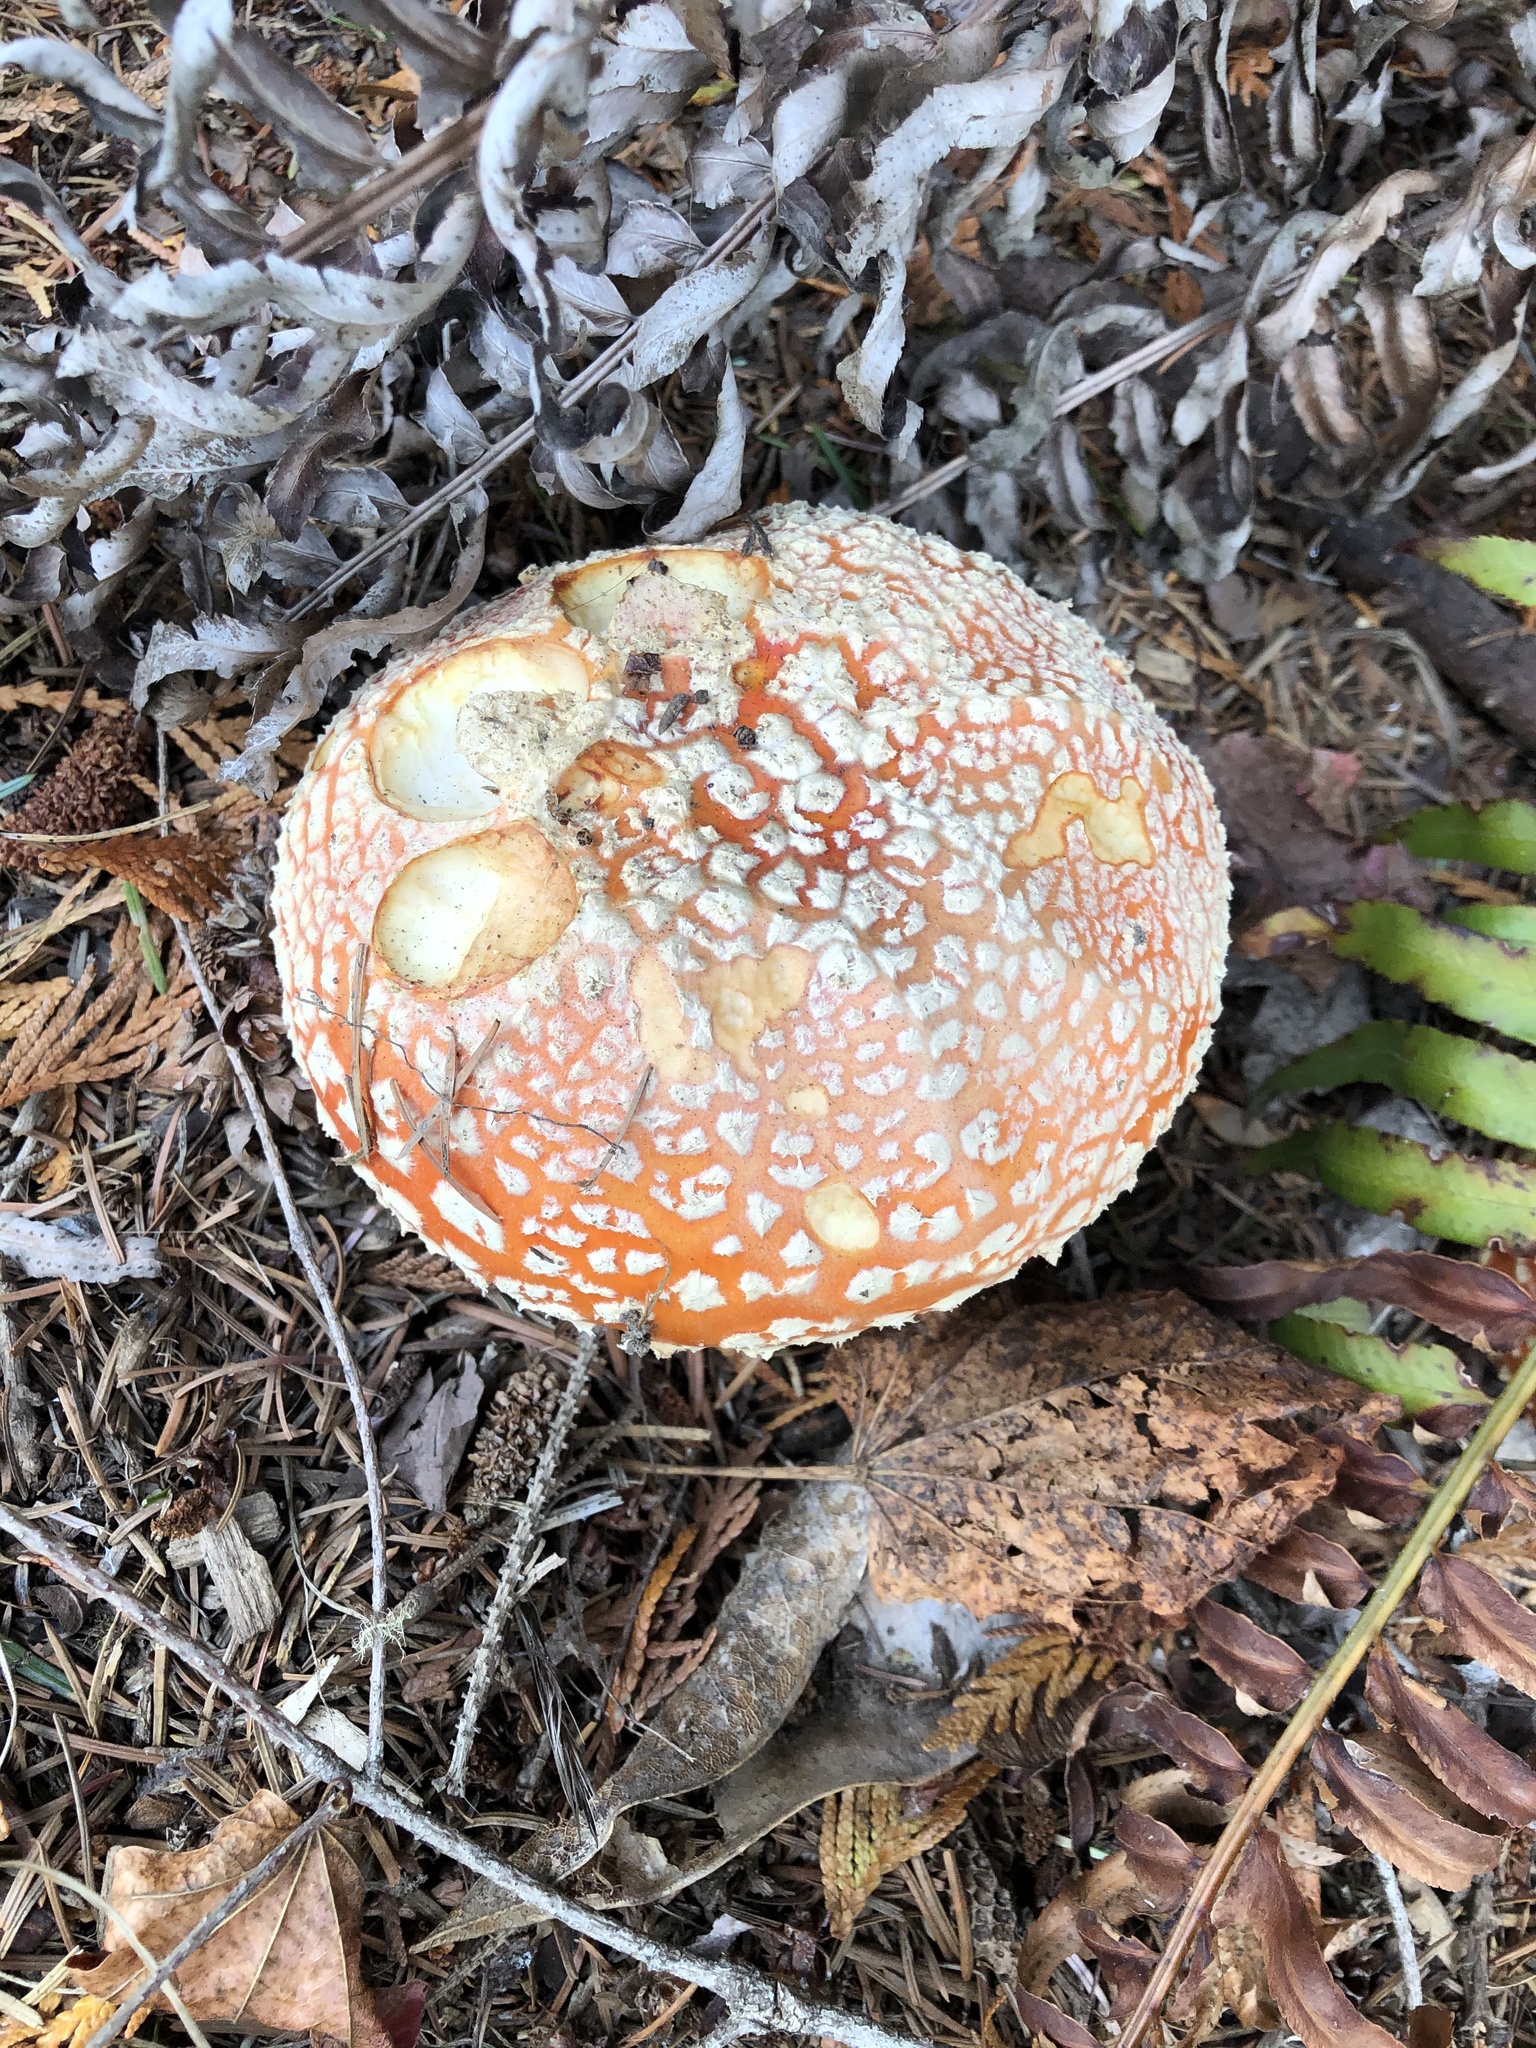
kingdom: Fungi
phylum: Basidiomycota
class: Agaricomycetes
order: Agaricales
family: Amanitaceae
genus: Amanita
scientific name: Amanita muscaria
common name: Fly agaric
